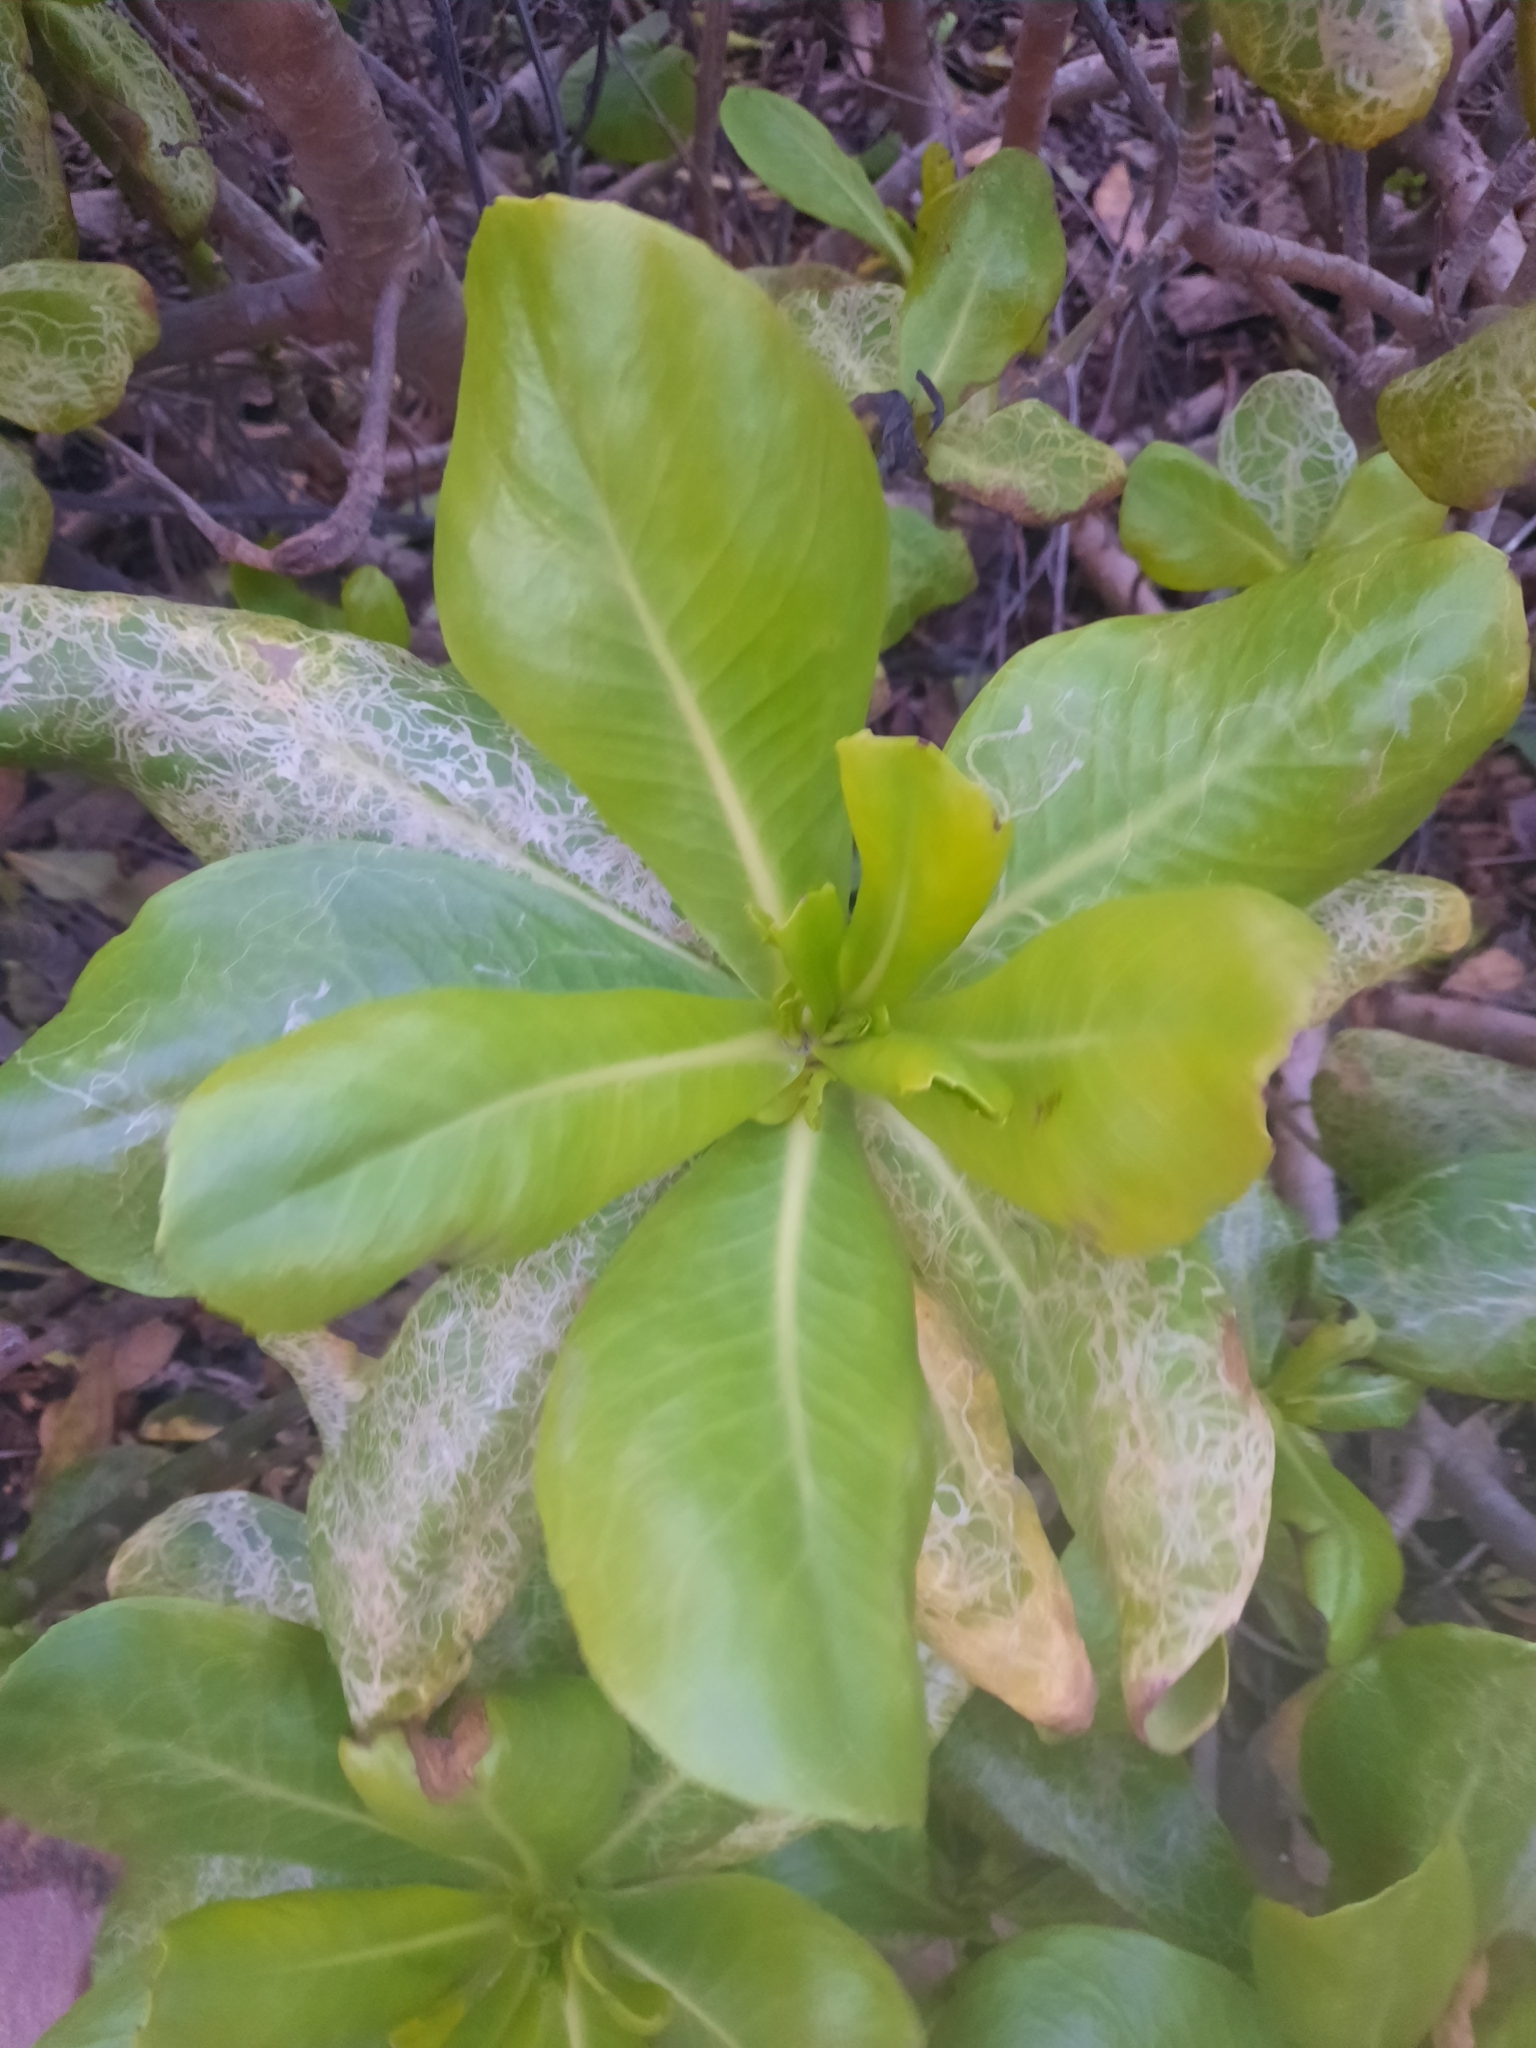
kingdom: Plantae
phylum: Tracheophyta
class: Magnoliopsida
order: Asterales
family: Goodeniaceae
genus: Scaevola
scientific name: Scaevola taccada
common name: Sea lettucetree
